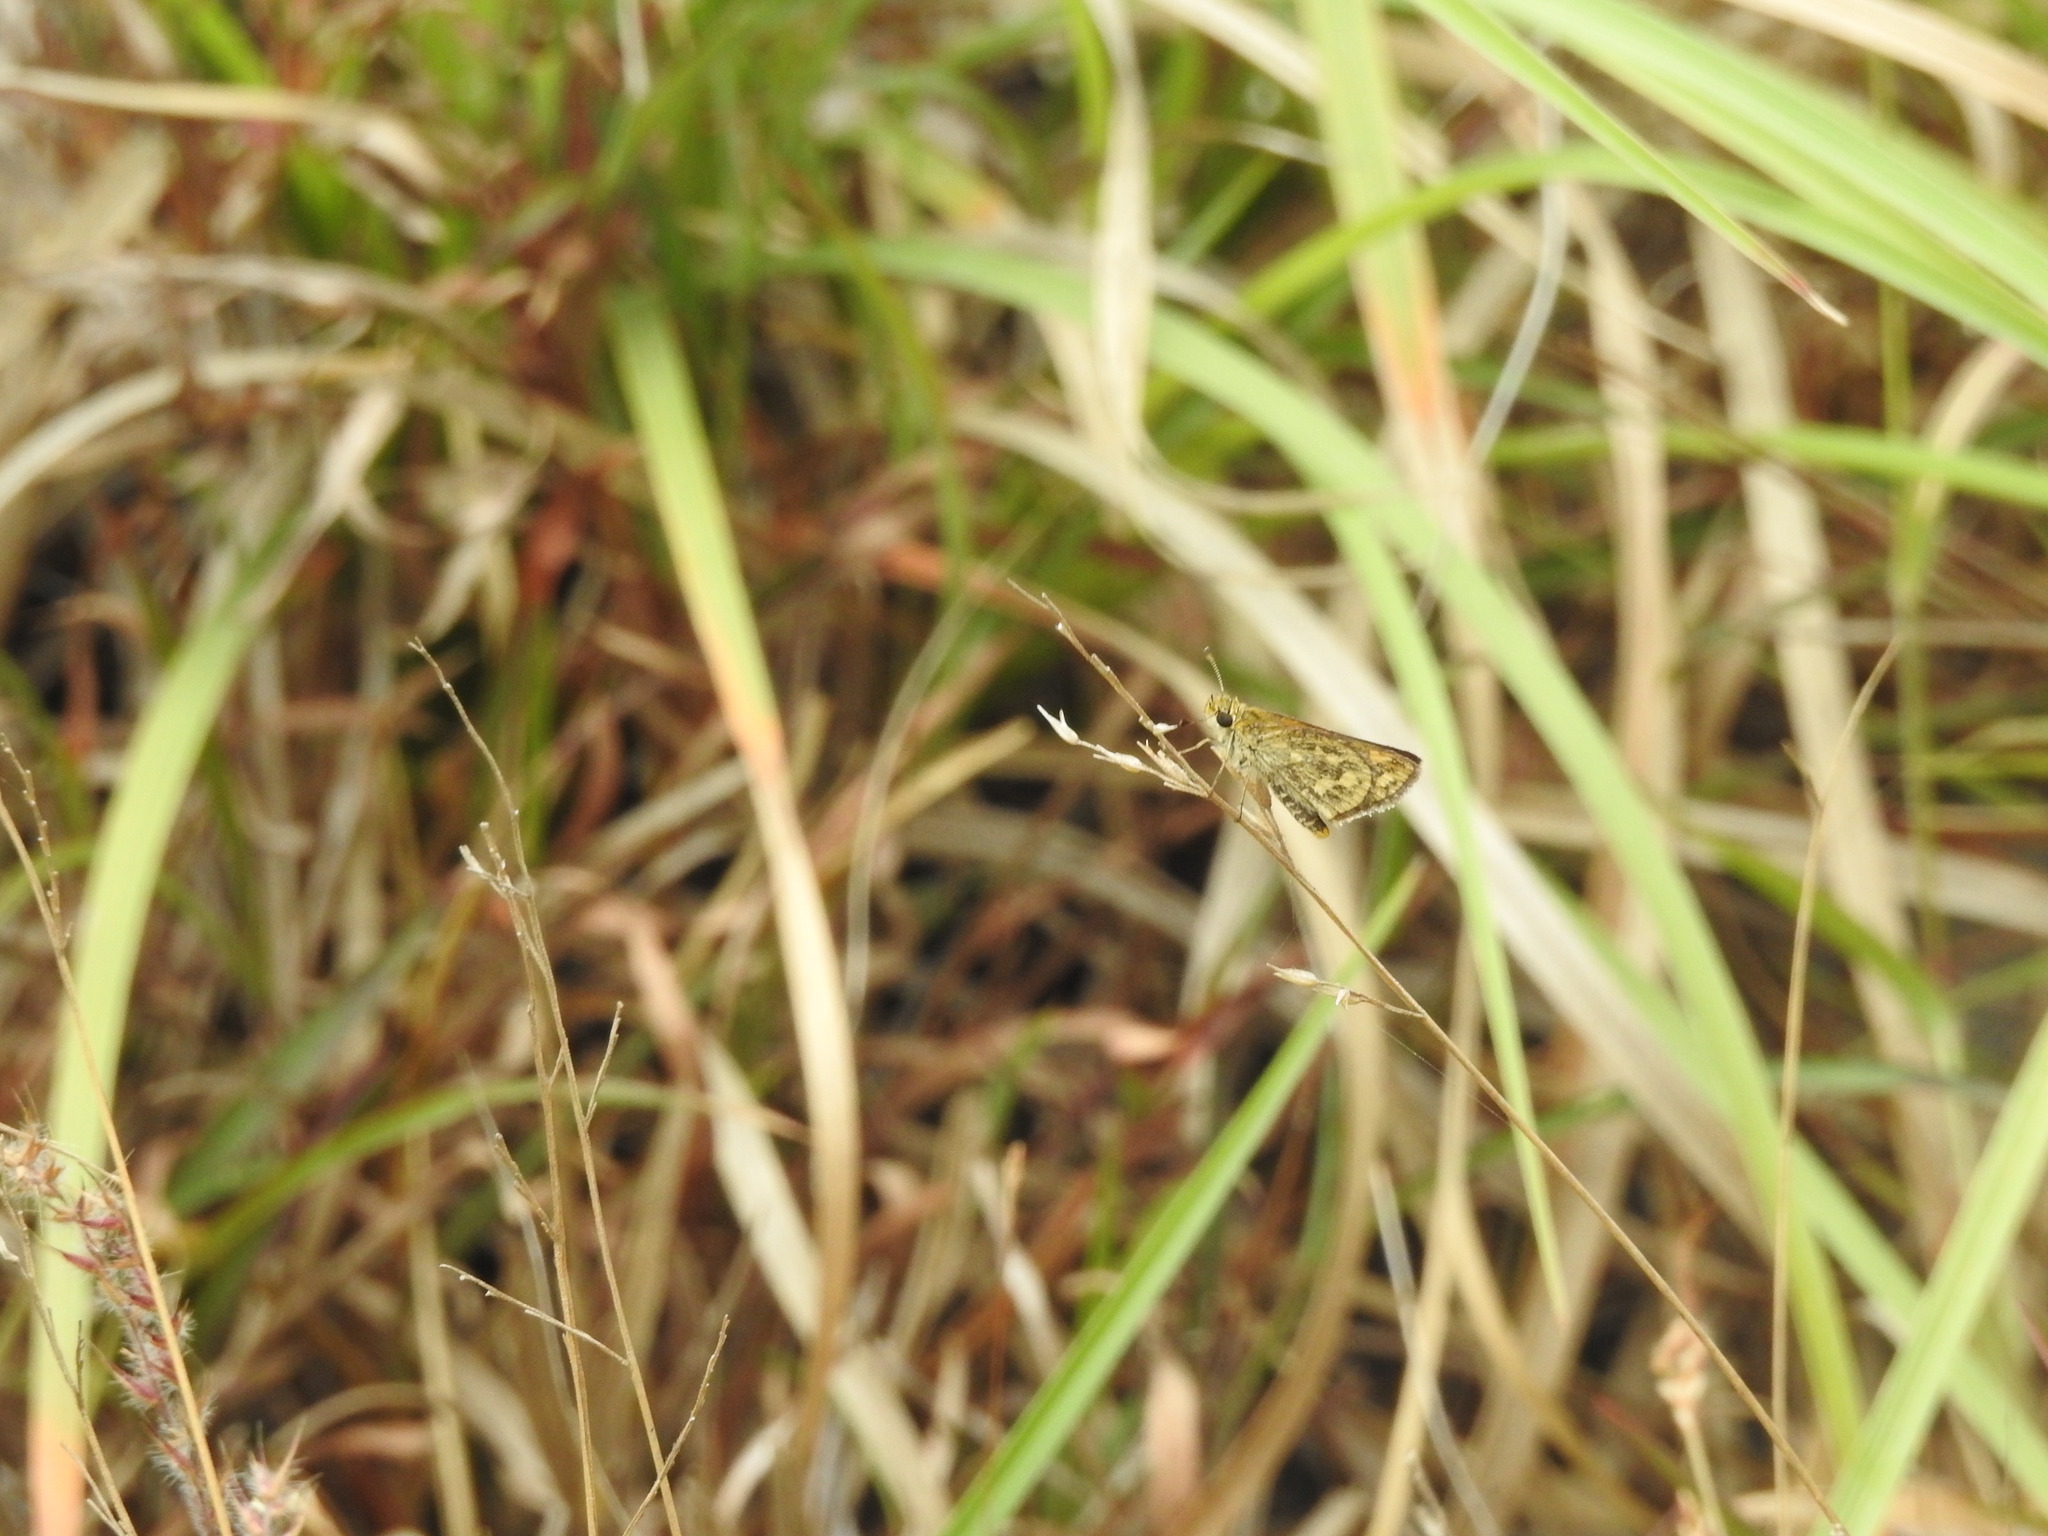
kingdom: Animalia
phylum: Arthropoda
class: Insecta
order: Lepidoptera
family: Hesperiidae
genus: Taractrocera
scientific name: Taractrocera ceramas
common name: Tamil grass dart
